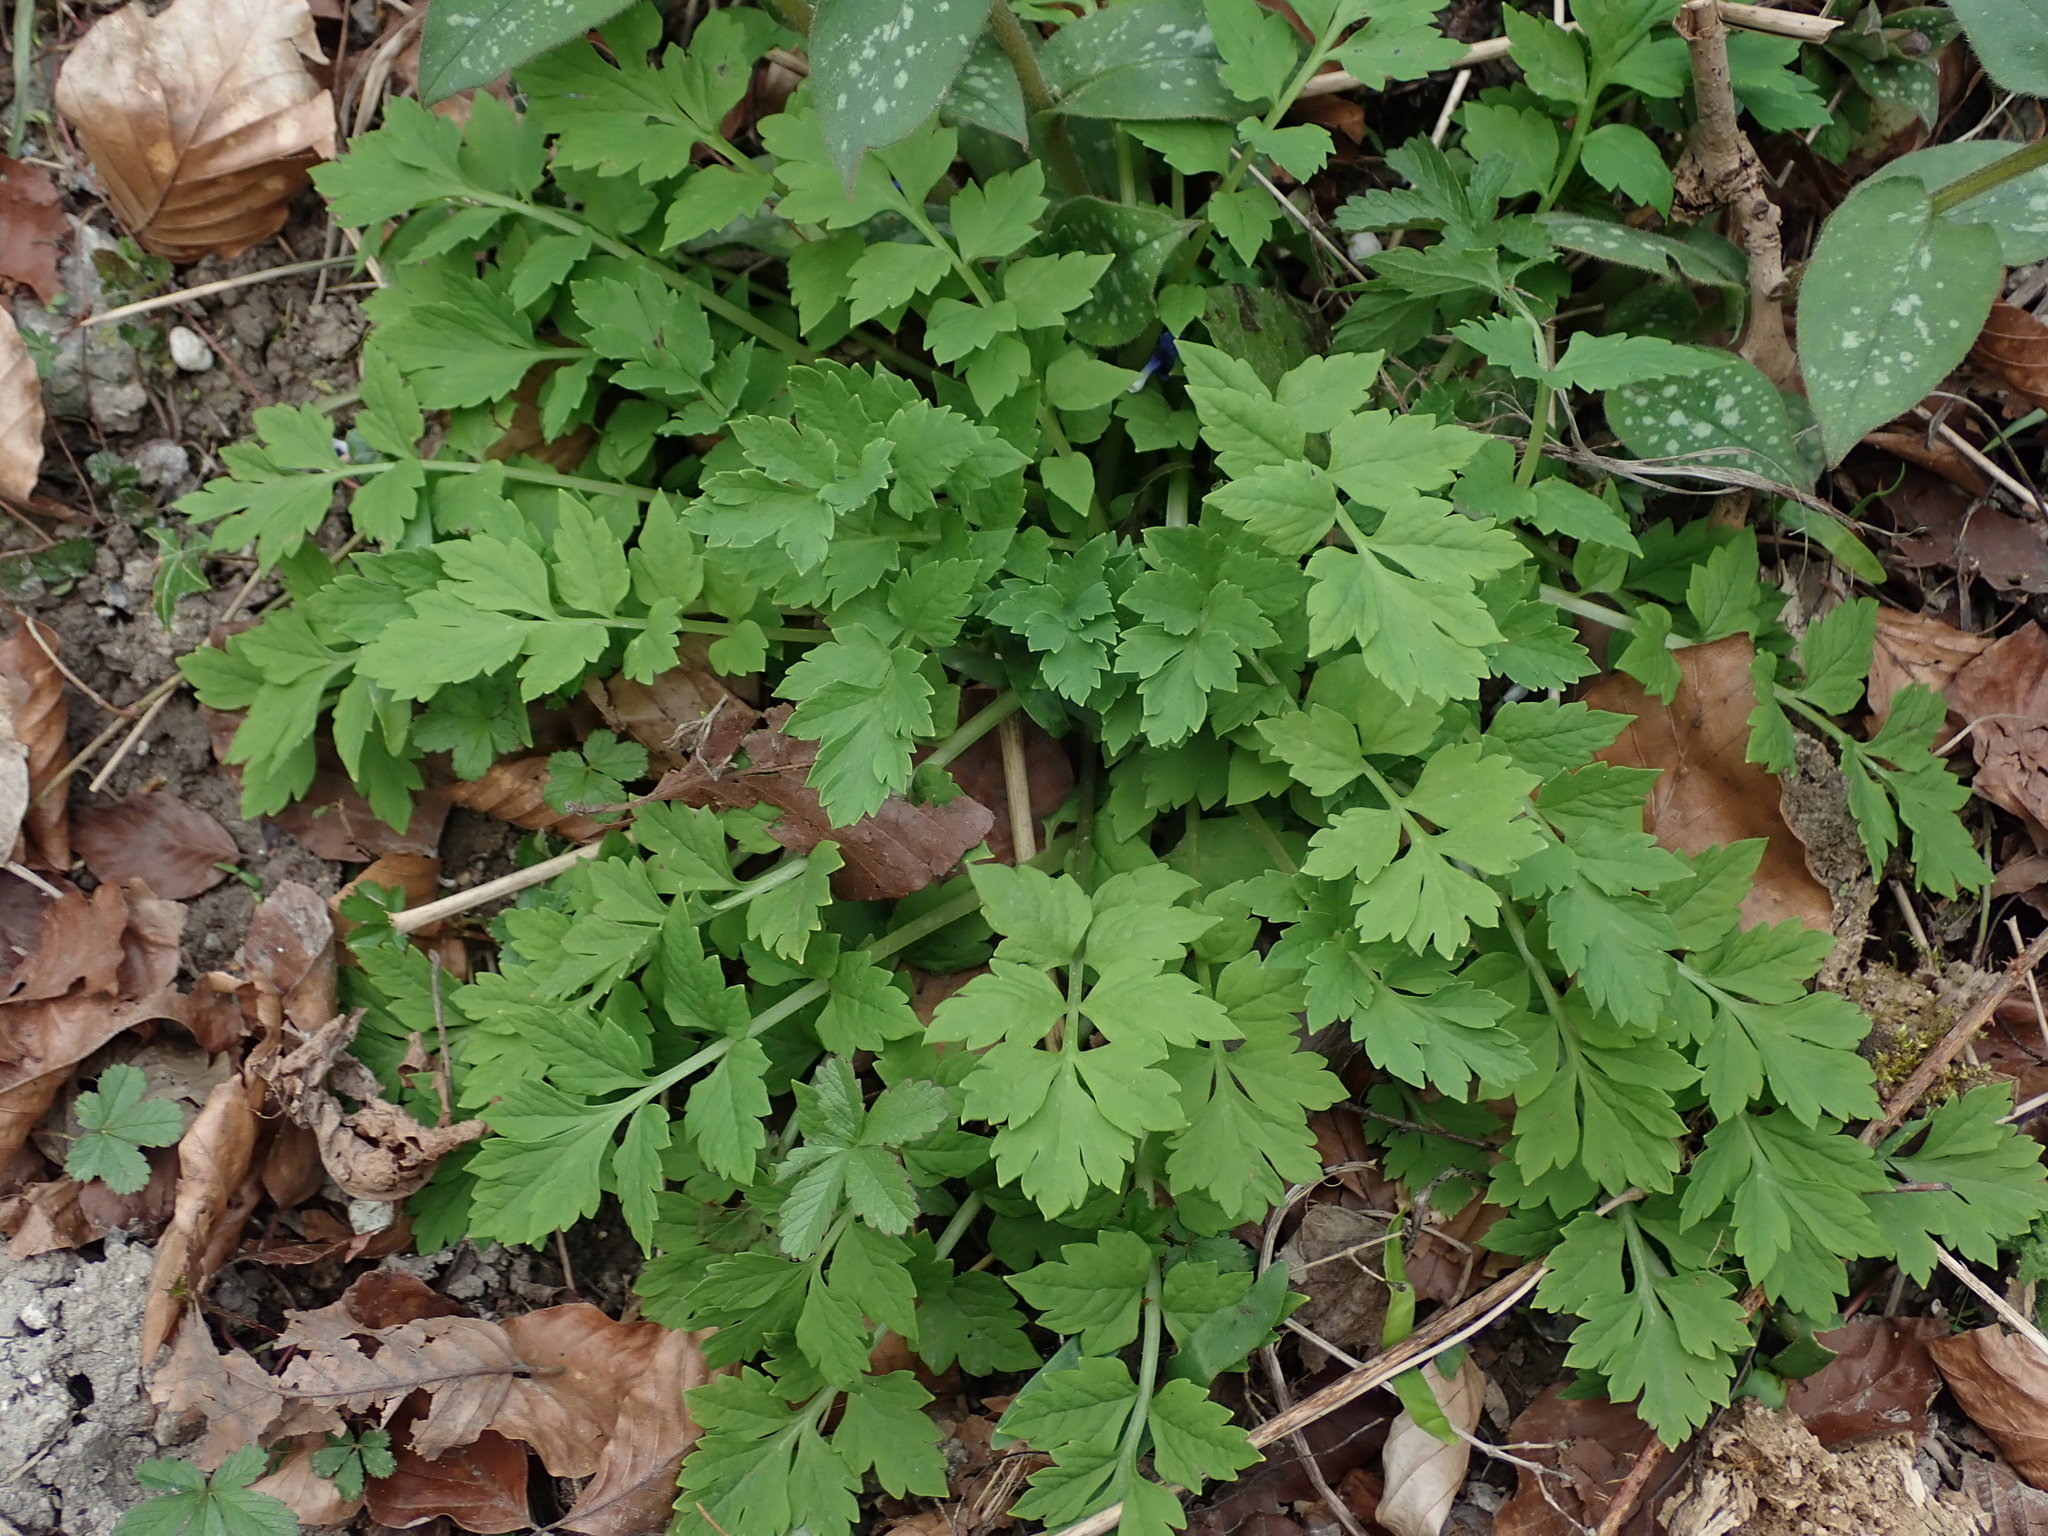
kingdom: Plantae
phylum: Tracheophyta
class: Magnoliopsida
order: Ranunculales
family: Papaveraceae
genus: Papaver
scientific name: Papaver cambricum
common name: Poppy
